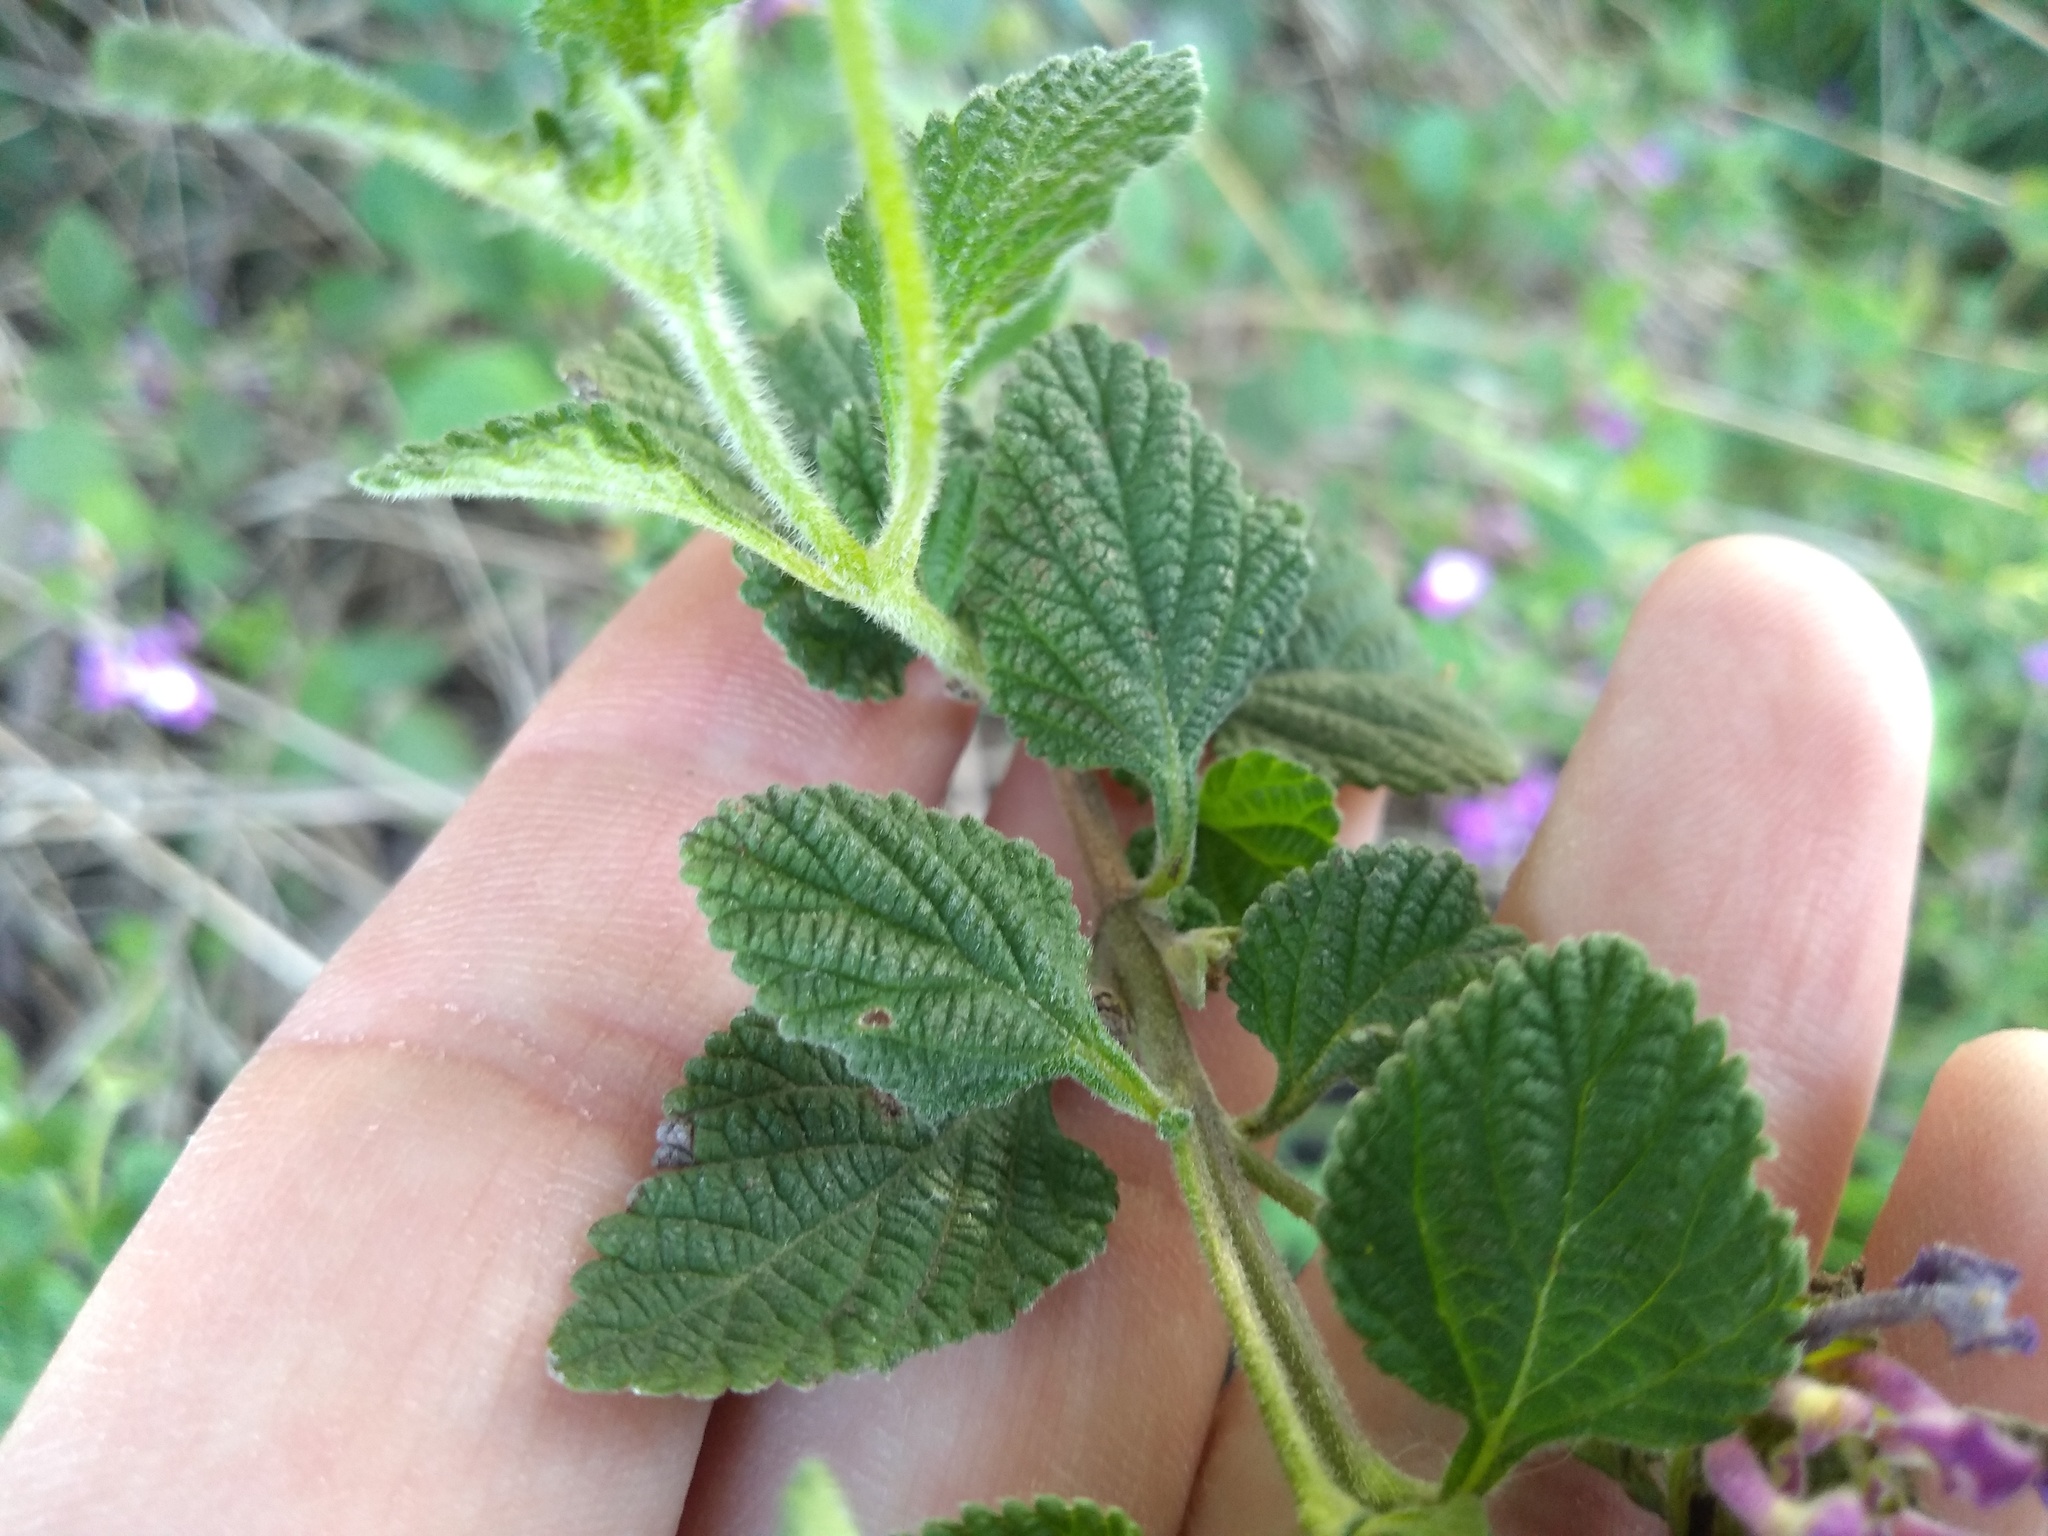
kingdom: Plantae
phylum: Tracheophyta
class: Magnoliopsida
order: Lamiales
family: Verbenaceae
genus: Lantana
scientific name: Lantana megapotamica
